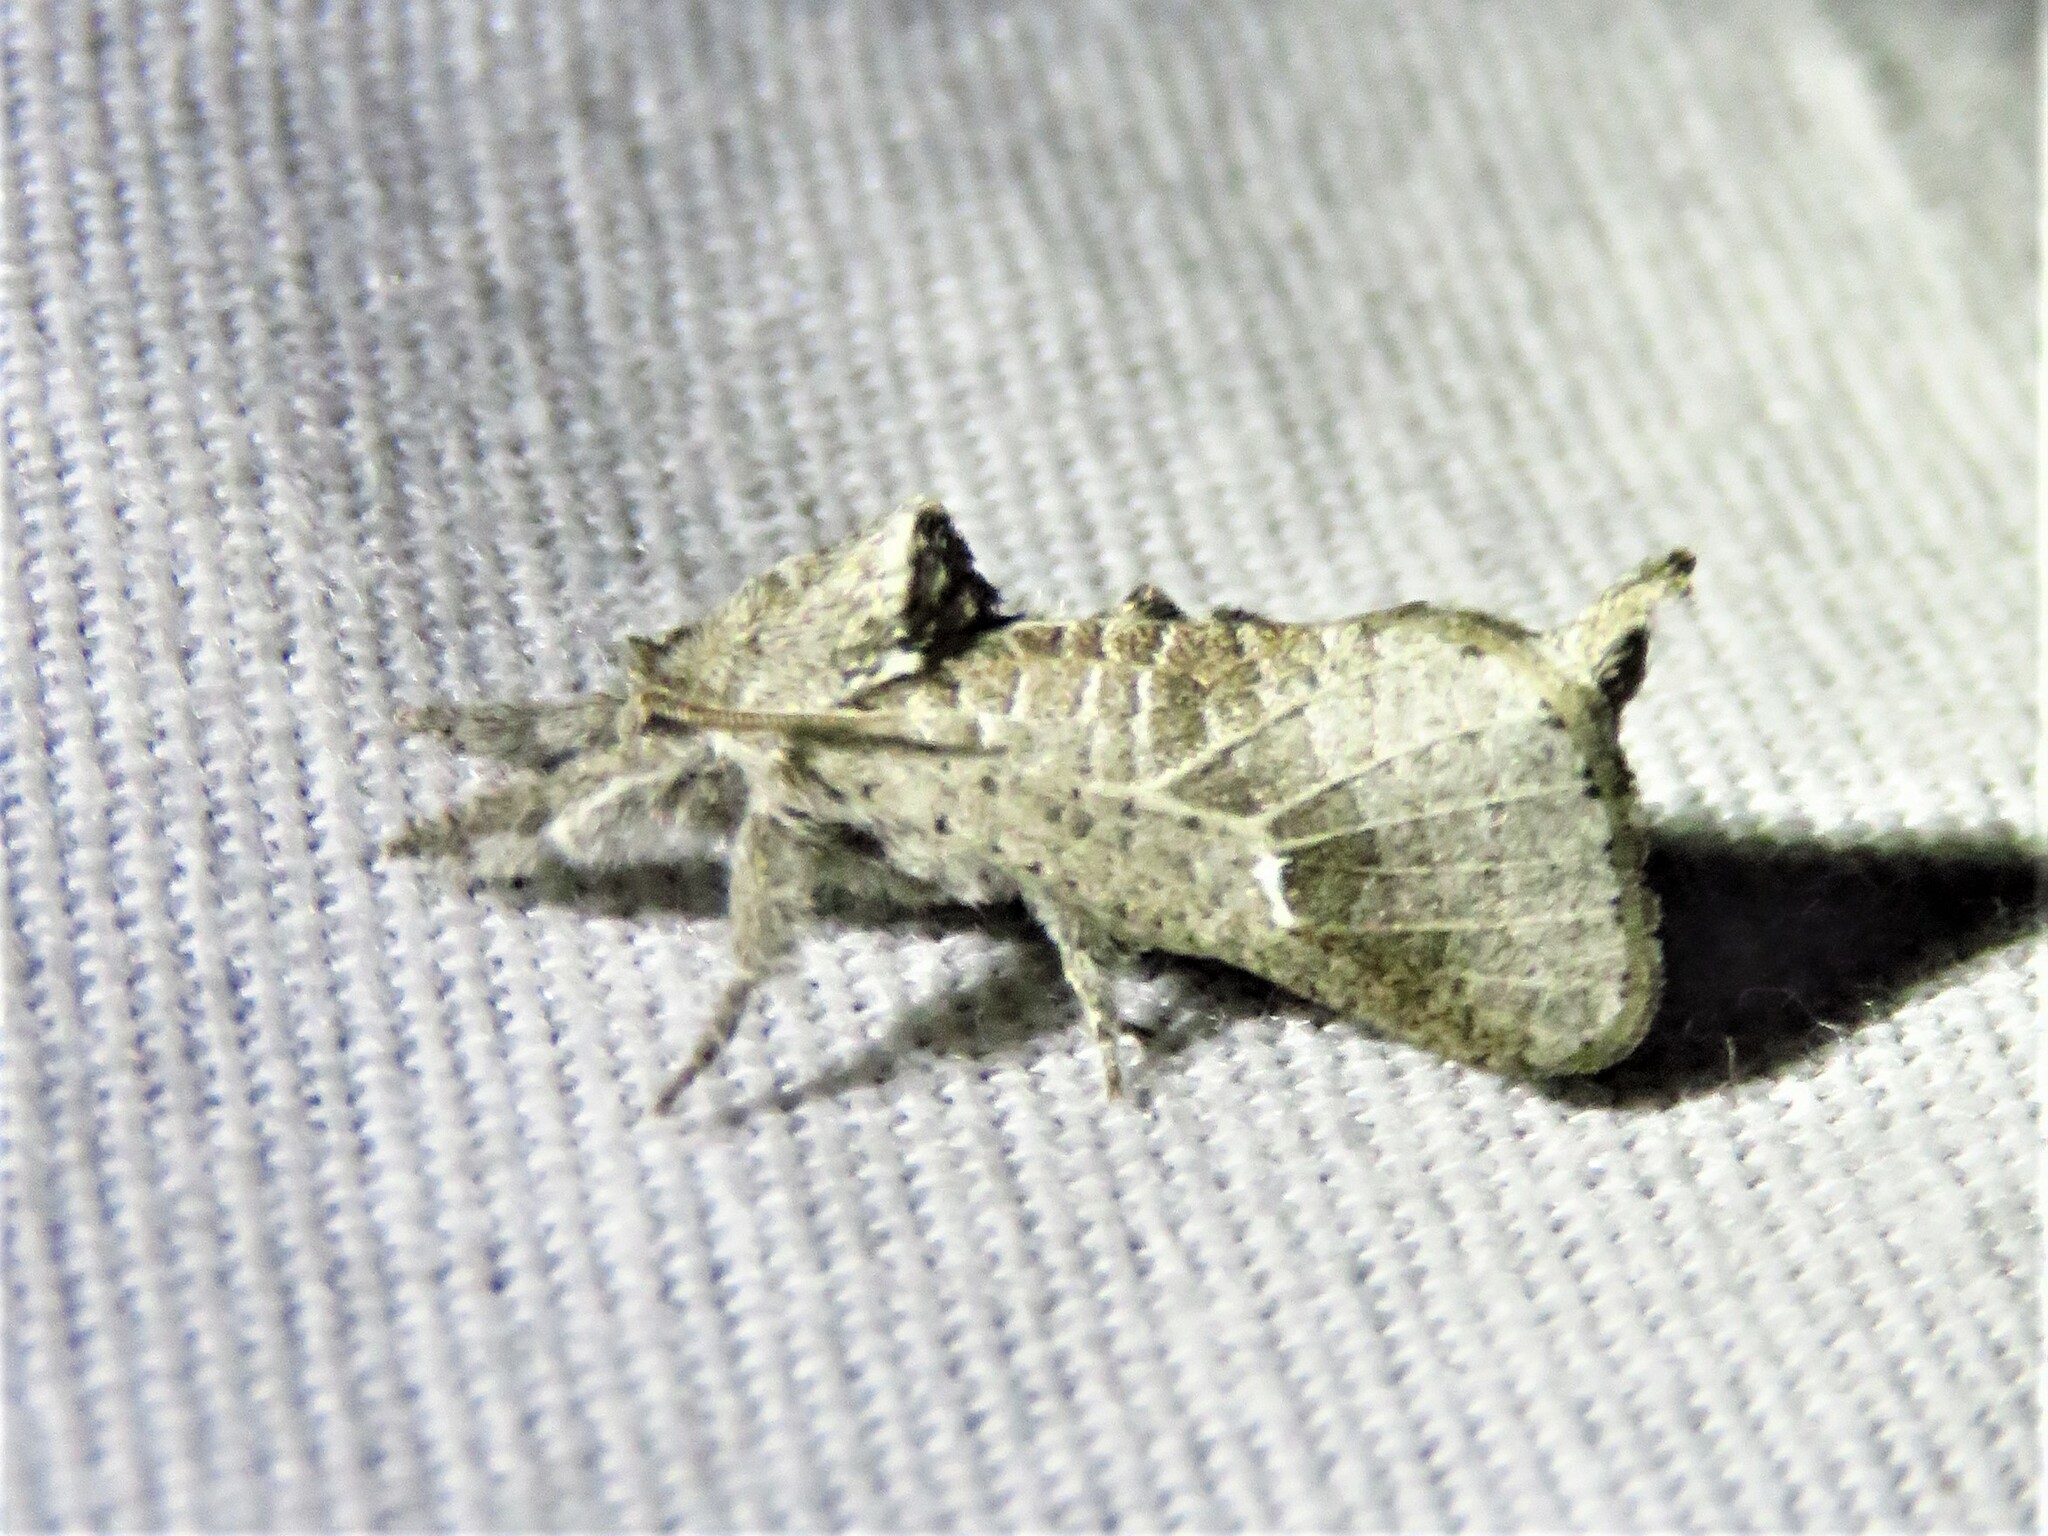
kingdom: Animalia
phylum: Arthropoda
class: Insecta
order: Lepidoptera
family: Cossidae
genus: Givira
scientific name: Givira anna
